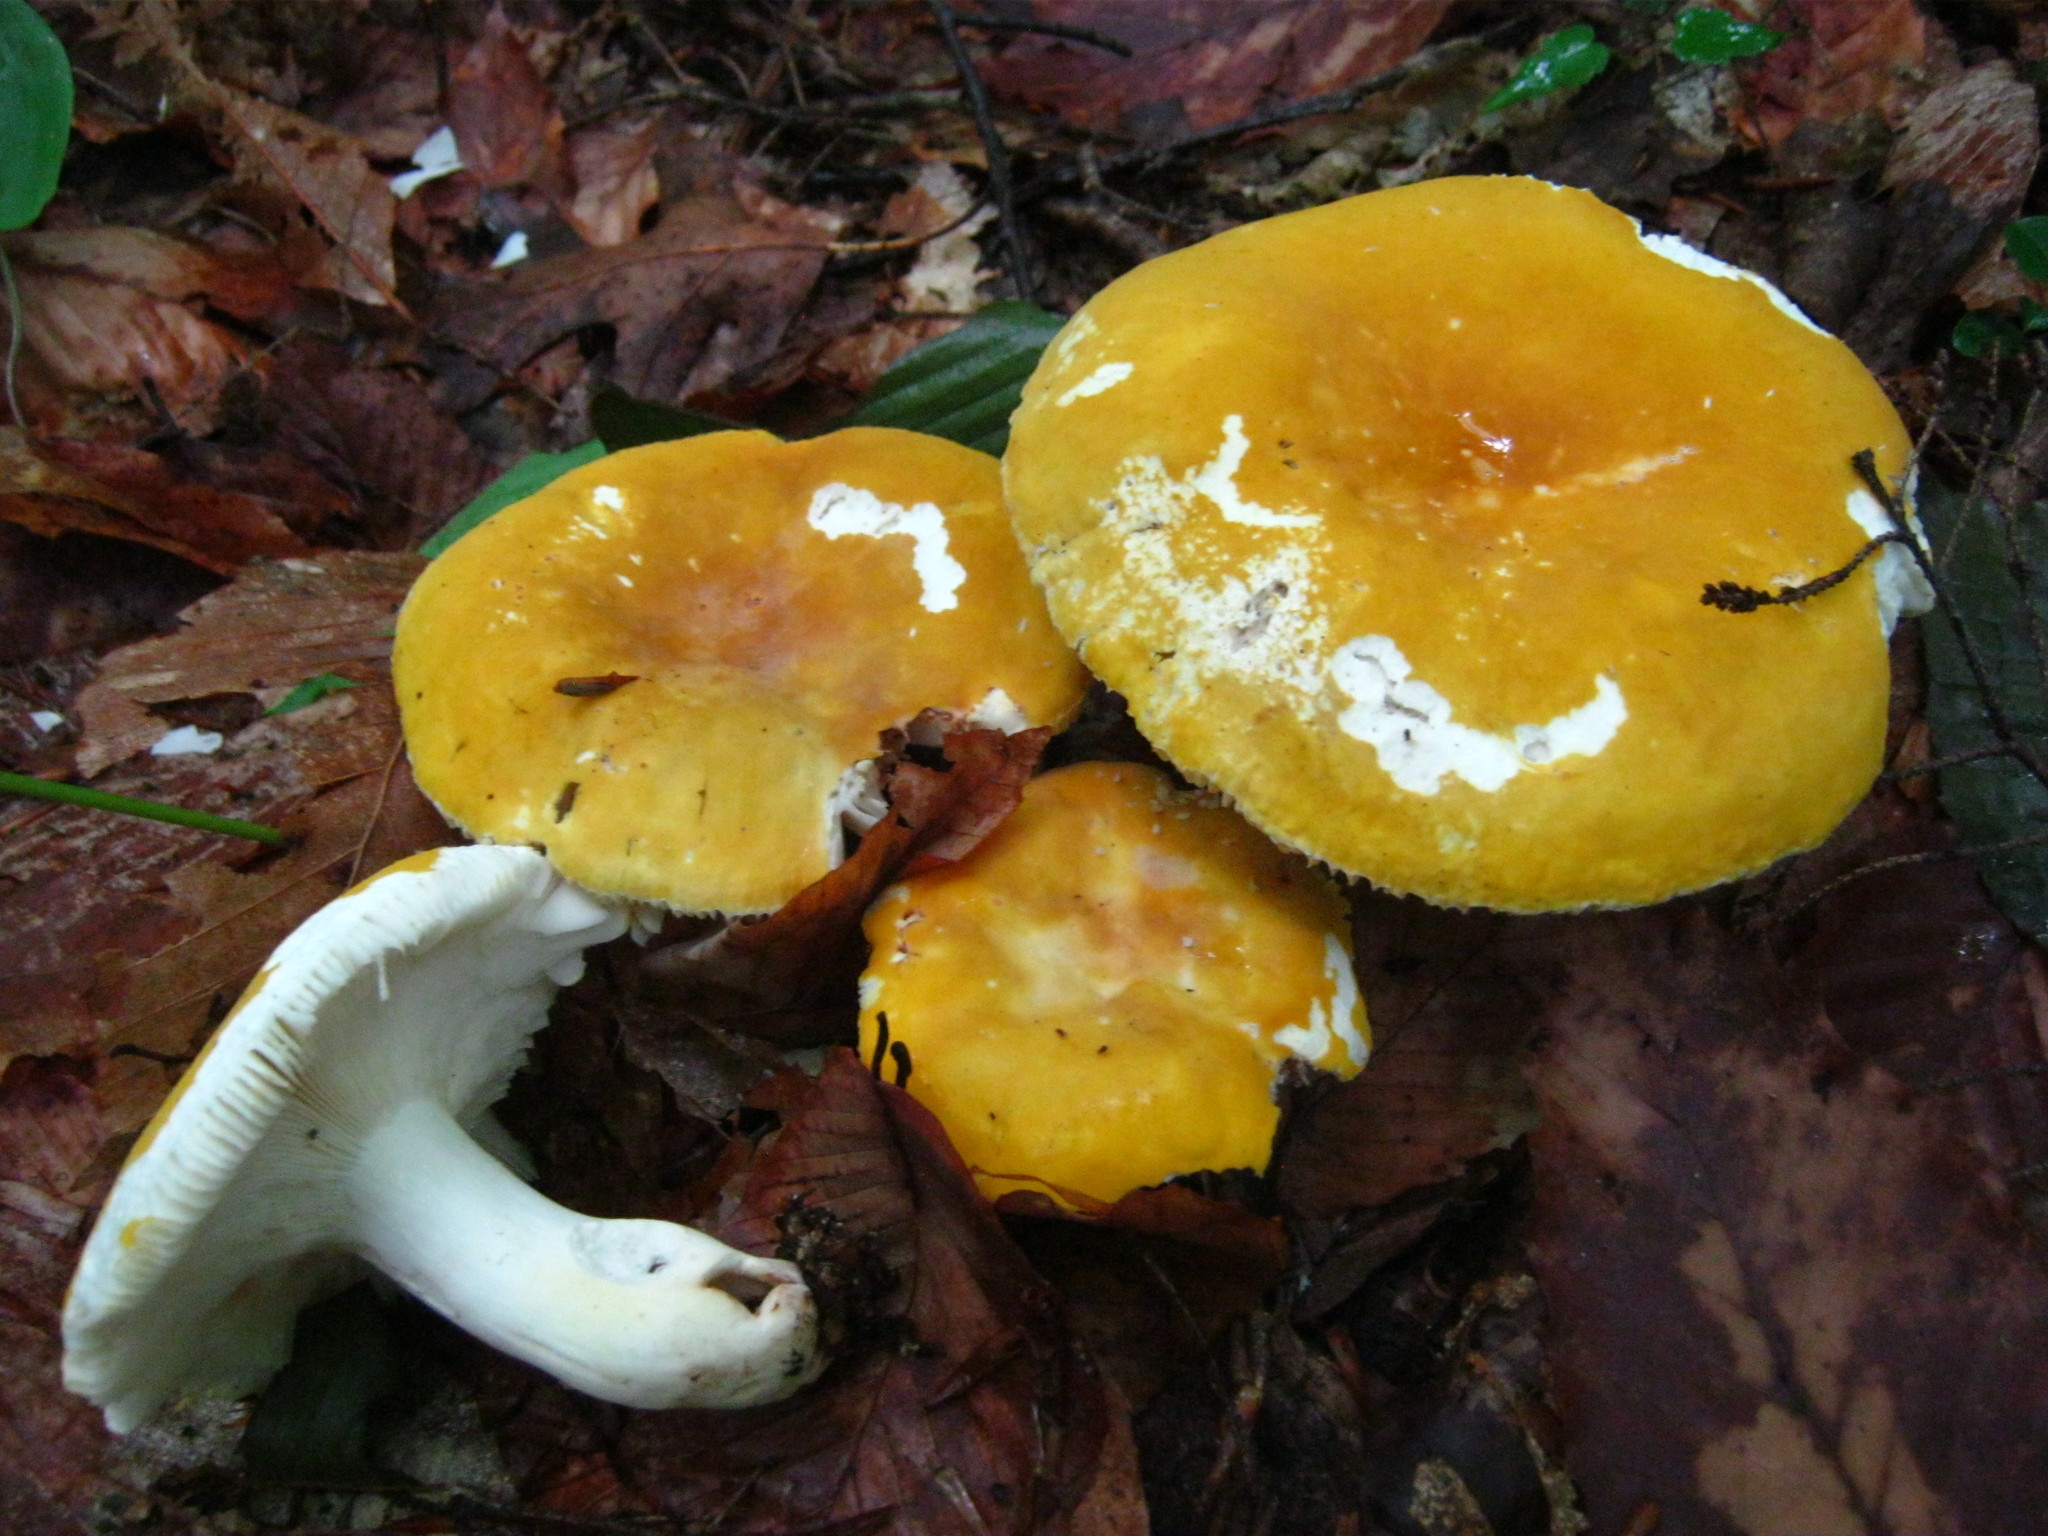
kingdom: Fungi
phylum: Basidiomycota
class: Agaricomycetes
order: Russulales
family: Russulaceae
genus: Russula
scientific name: Russula ochroleucoides
